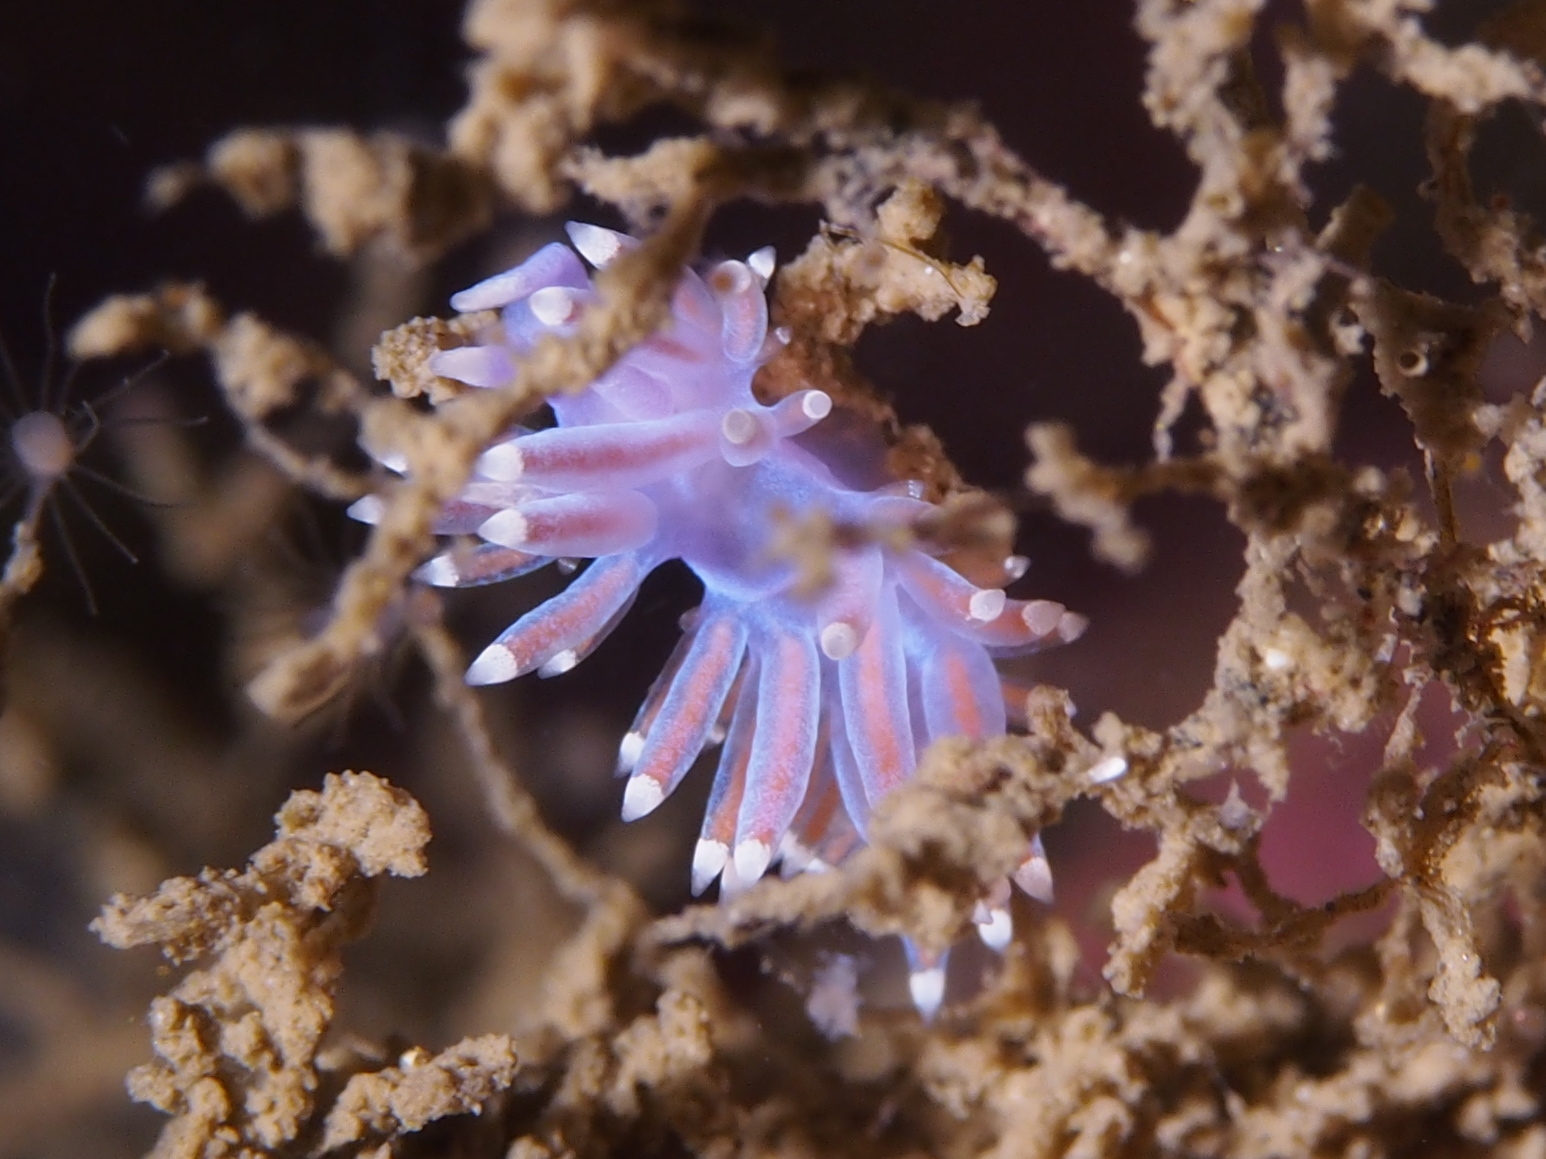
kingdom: Animalia
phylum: Mollusca
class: Gastropoda
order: Nudibranchia
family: Flabellinidae
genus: Edmundsella
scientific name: Edmundsella pedata
